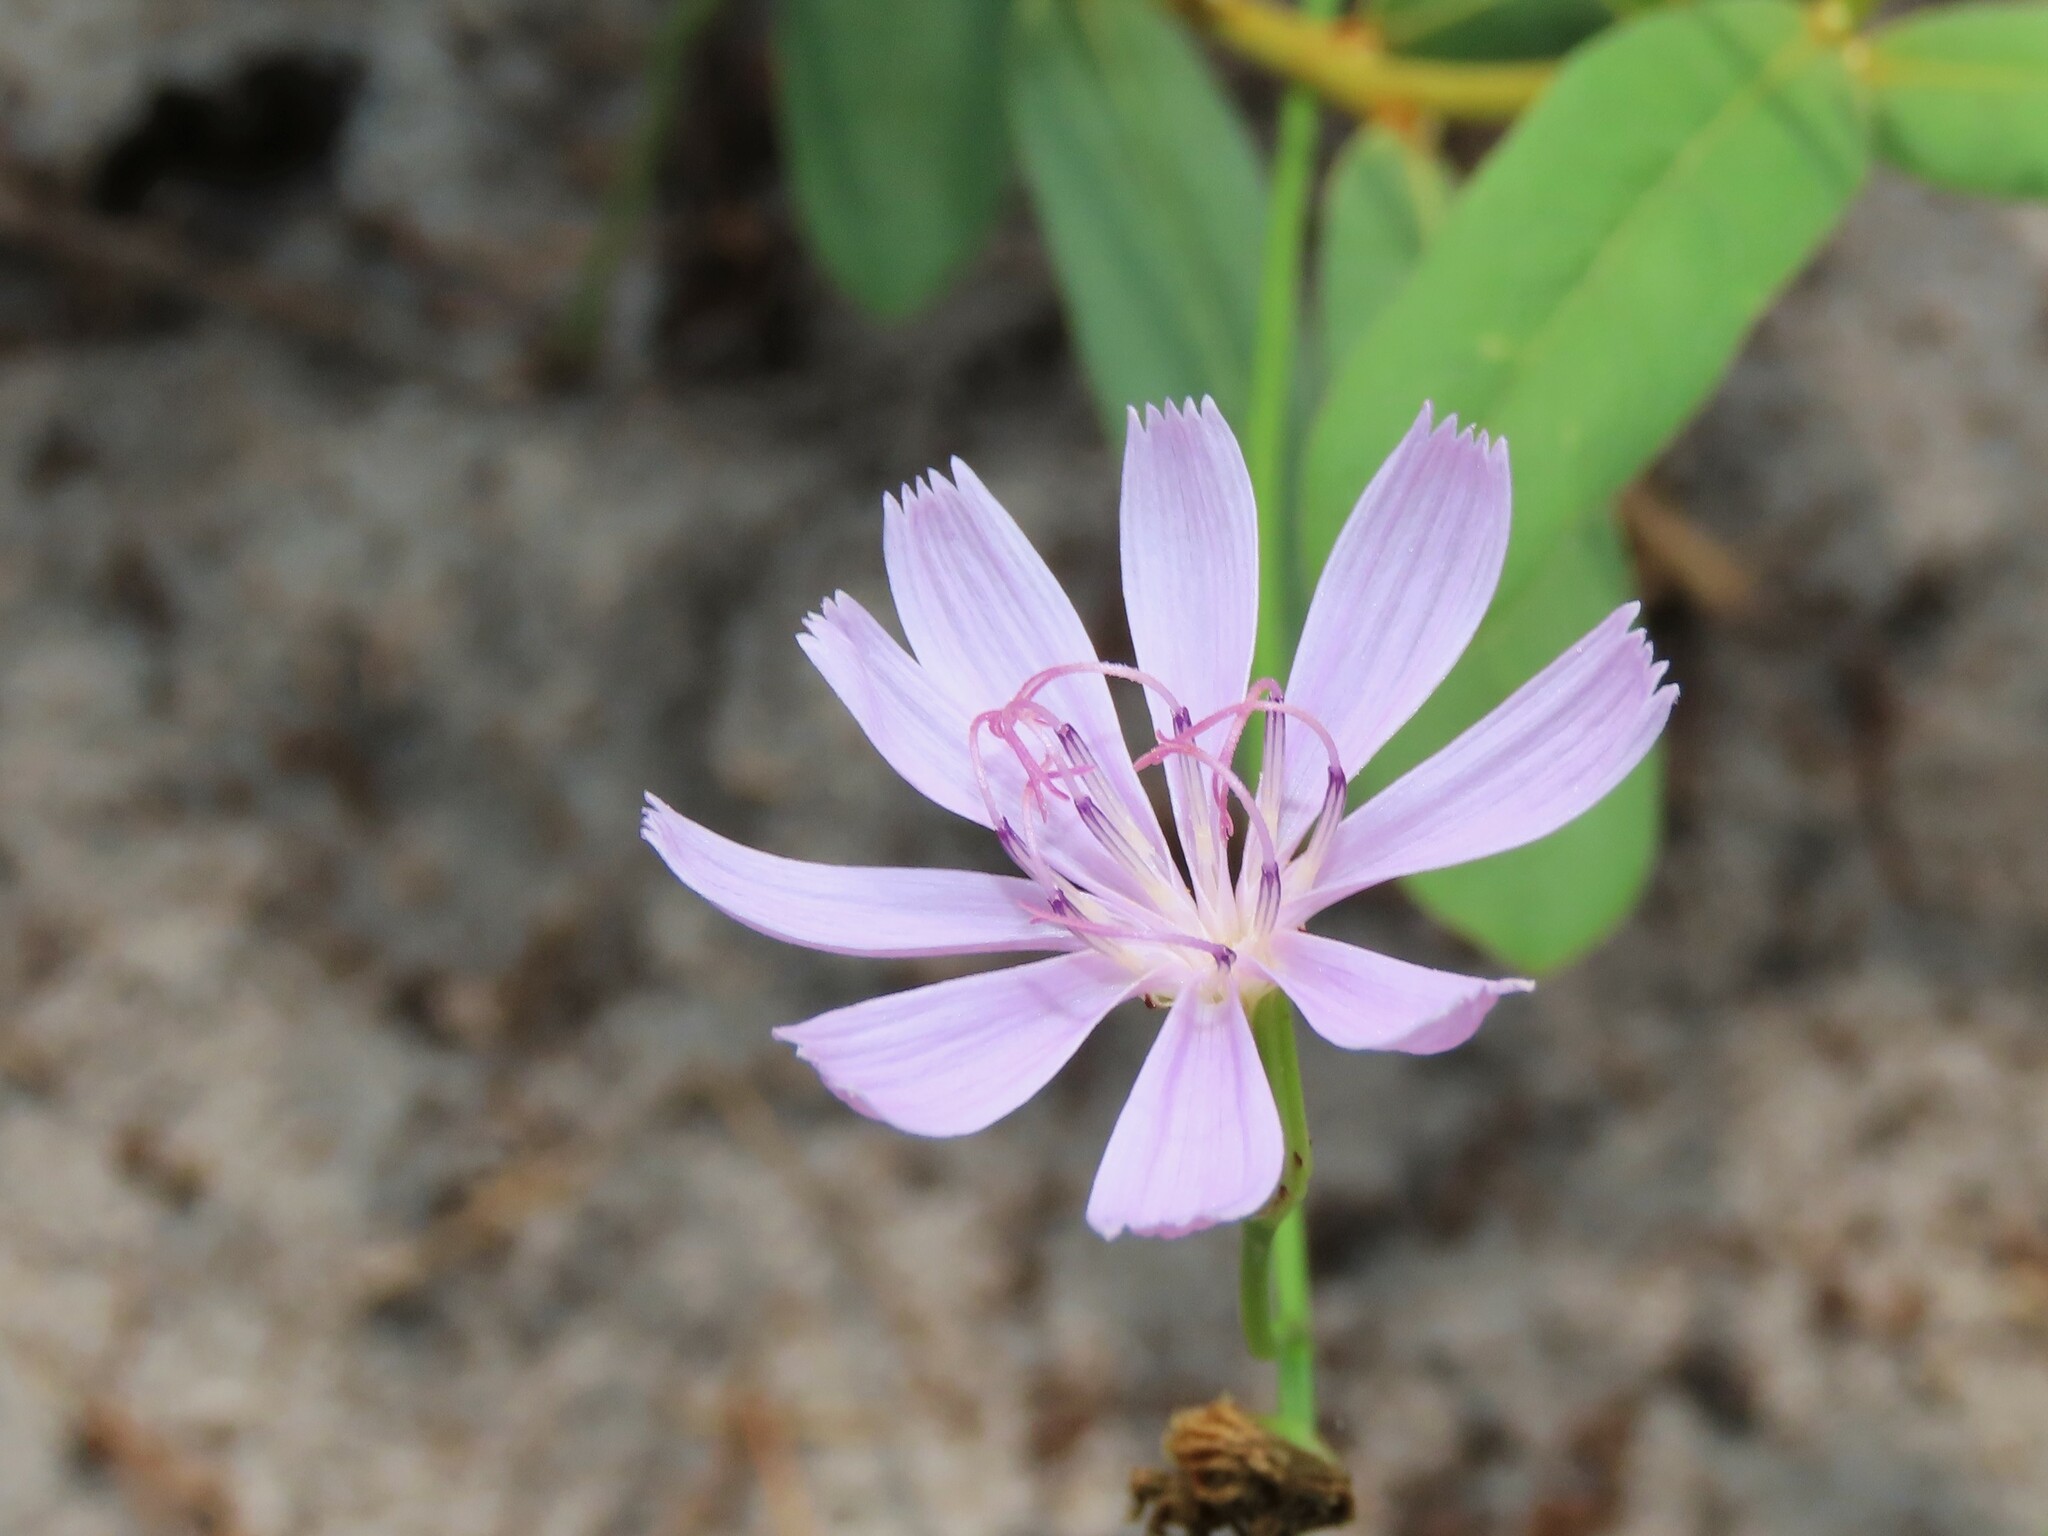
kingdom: Plantae
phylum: Tracheophyta
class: Magnoliopsida
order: Asterales
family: Asteraceae
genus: Lygodesmia
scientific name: Lygodesmia aphylla
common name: Rose-rush
